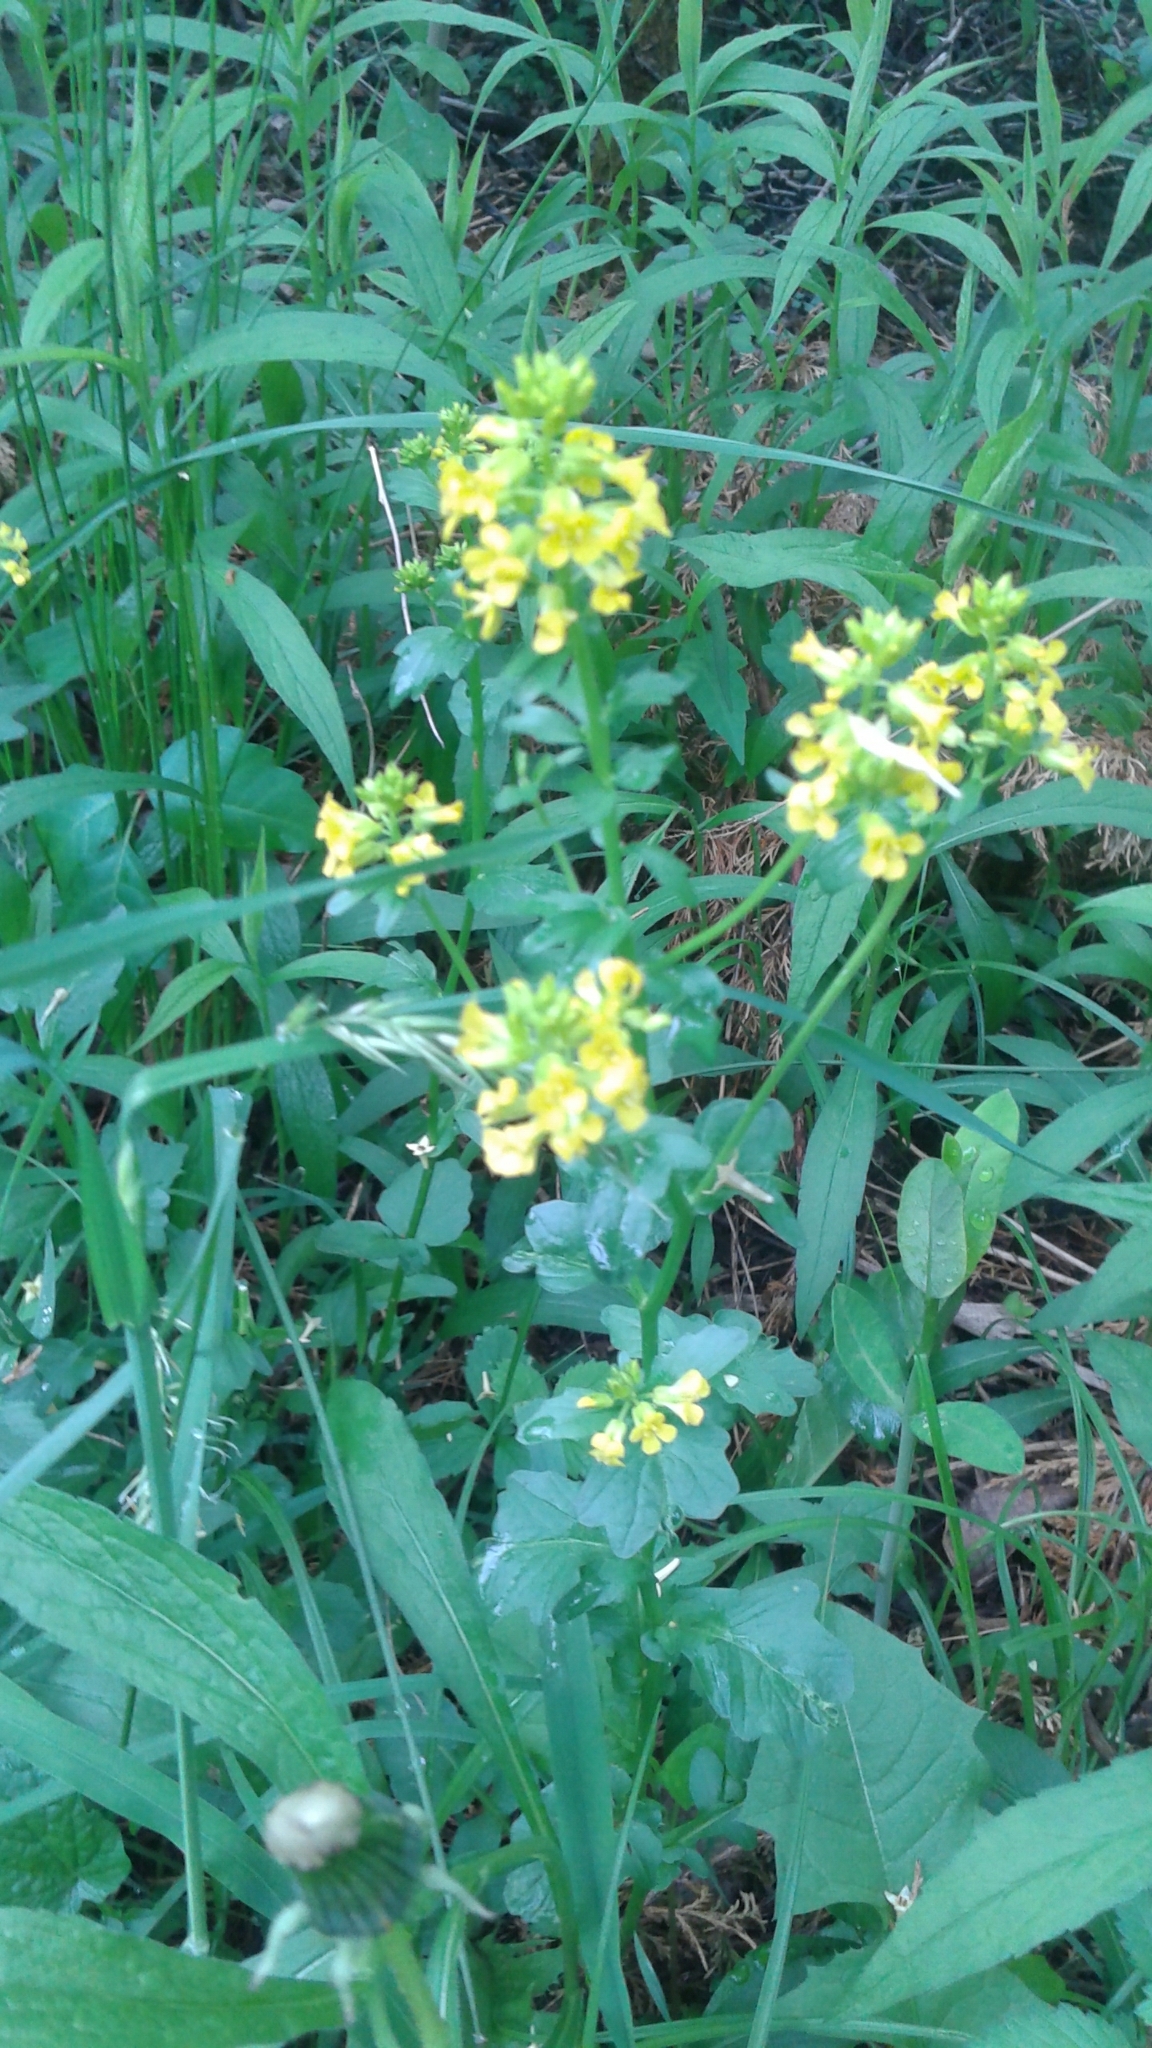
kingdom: Plantae
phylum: Tracheophyta
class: Magnoliopsida
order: Brassicales
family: Brassicaceae
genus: Barbarea
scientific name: Barbarea vulgaris
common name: Cressy-greens
